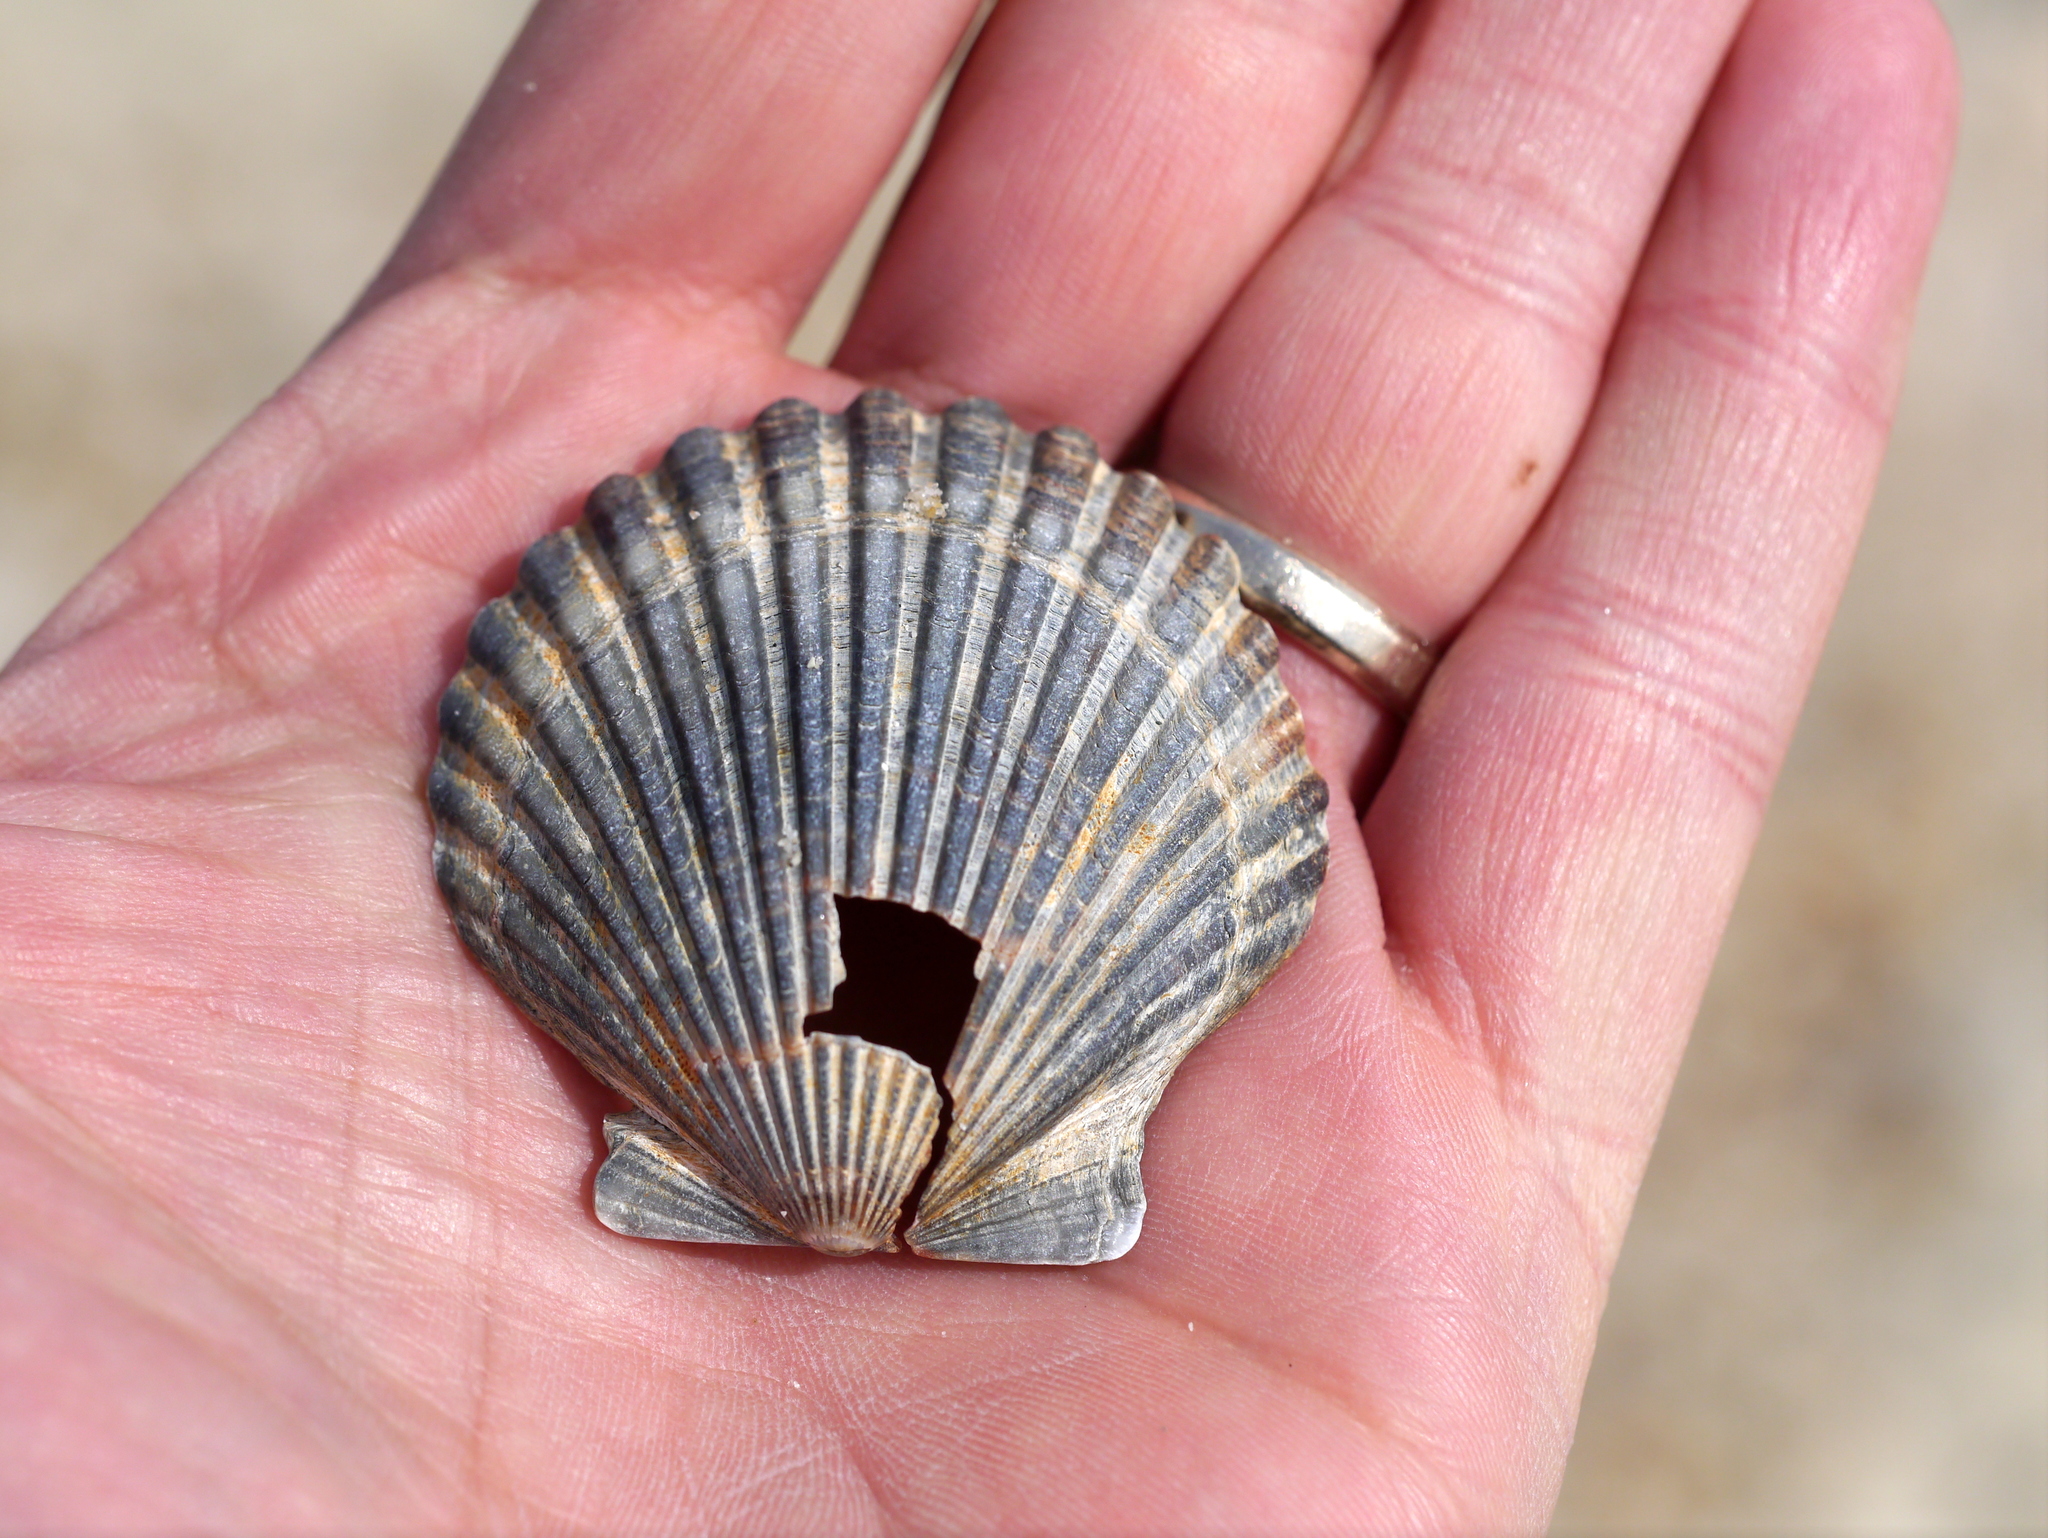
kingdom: Animalia
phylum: Mollusca
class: Bivalvia
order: Pectinida
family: Pectinidae
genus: Argopecten
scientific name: Argopecten irradians
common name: Atlantic bay scallop
